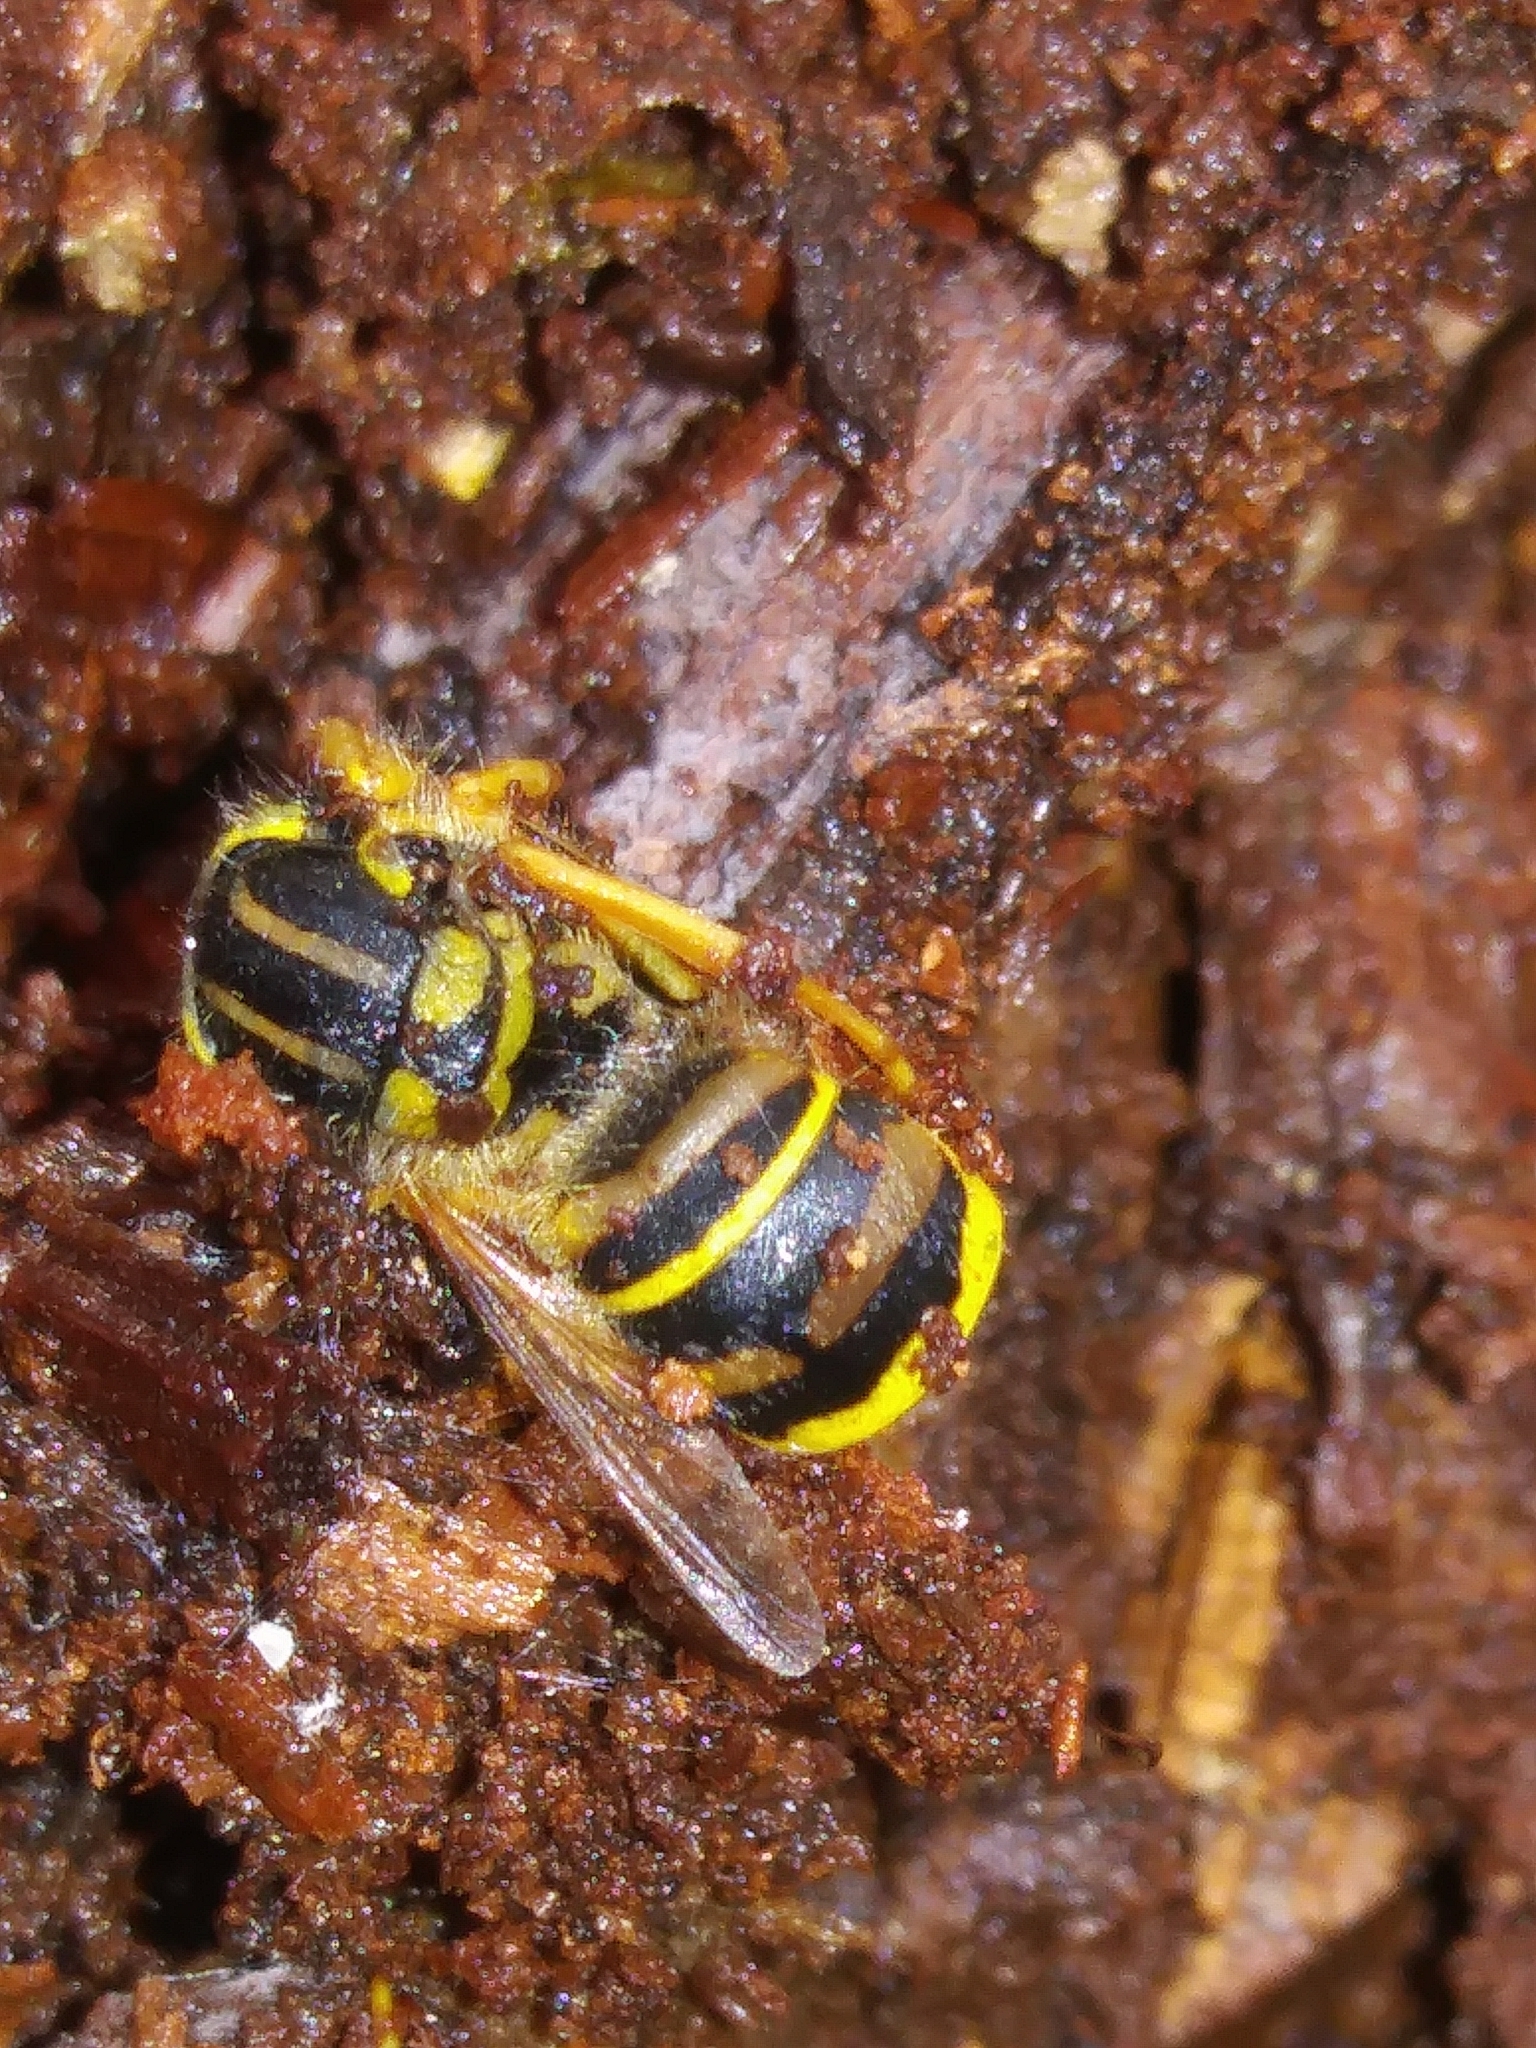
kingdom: Animalia
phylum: Arthropoda
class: Insecta
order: Hymenoptera
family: Vespidae
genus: Vespula
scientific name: Vespula squamosa
